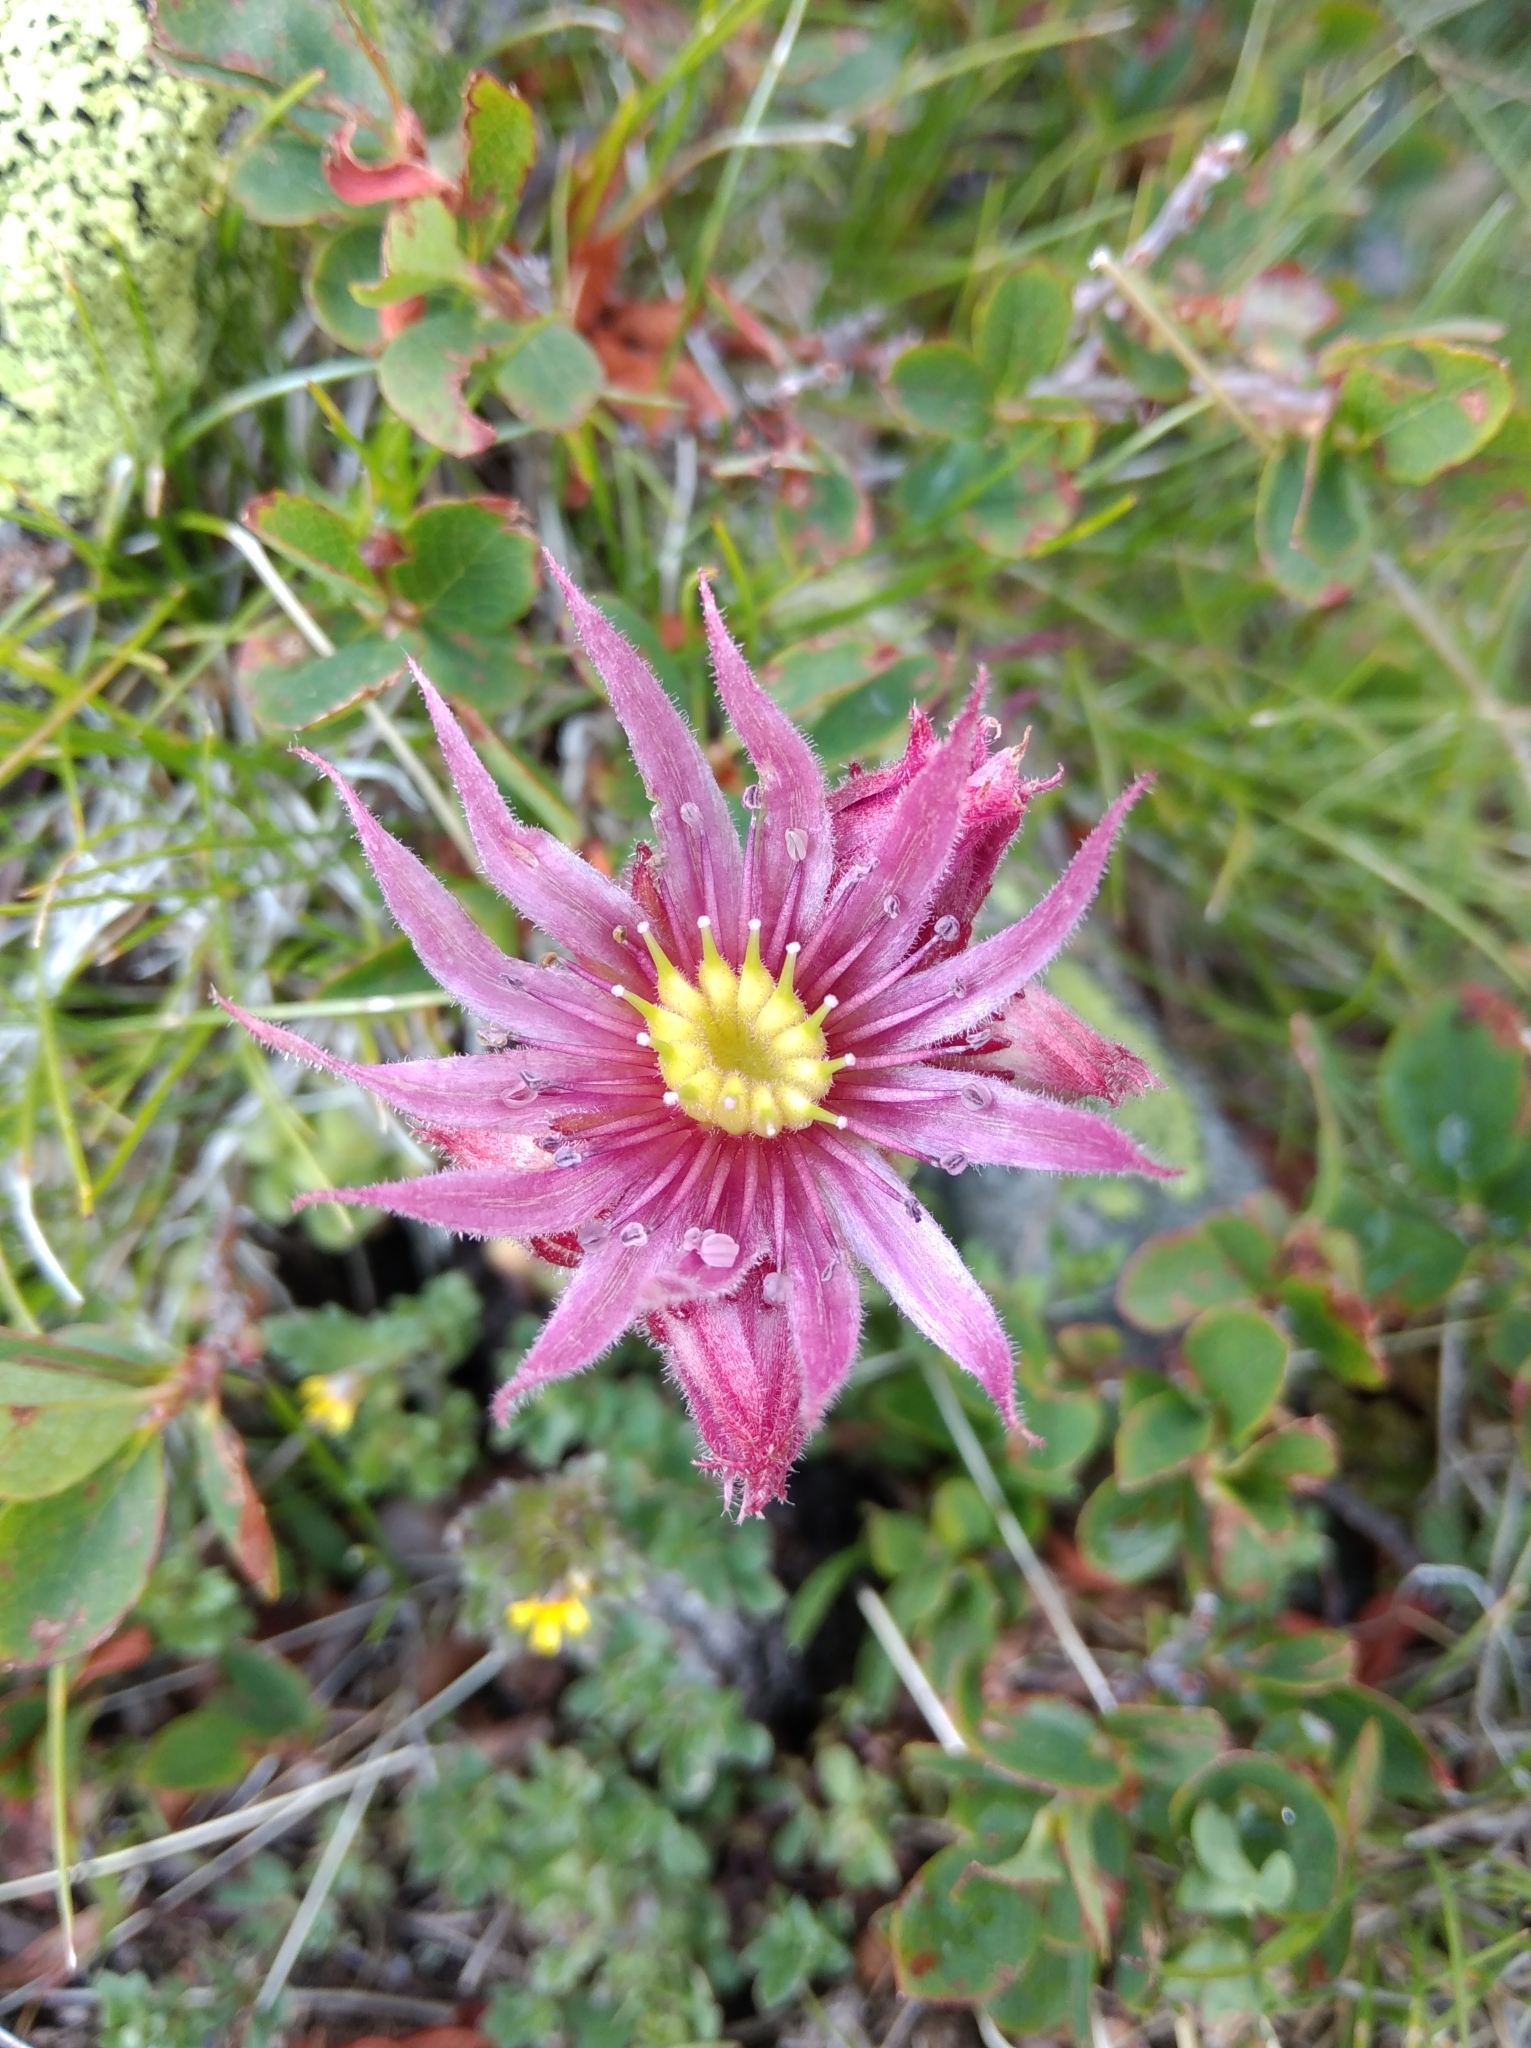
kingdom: Plantae
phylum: Tracheophyta
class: Magnoliopsida
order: Saxifragales
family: Crassulaceae
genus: Sempervivum
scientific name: Sempervivum montanum
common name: Mountain house-leek
